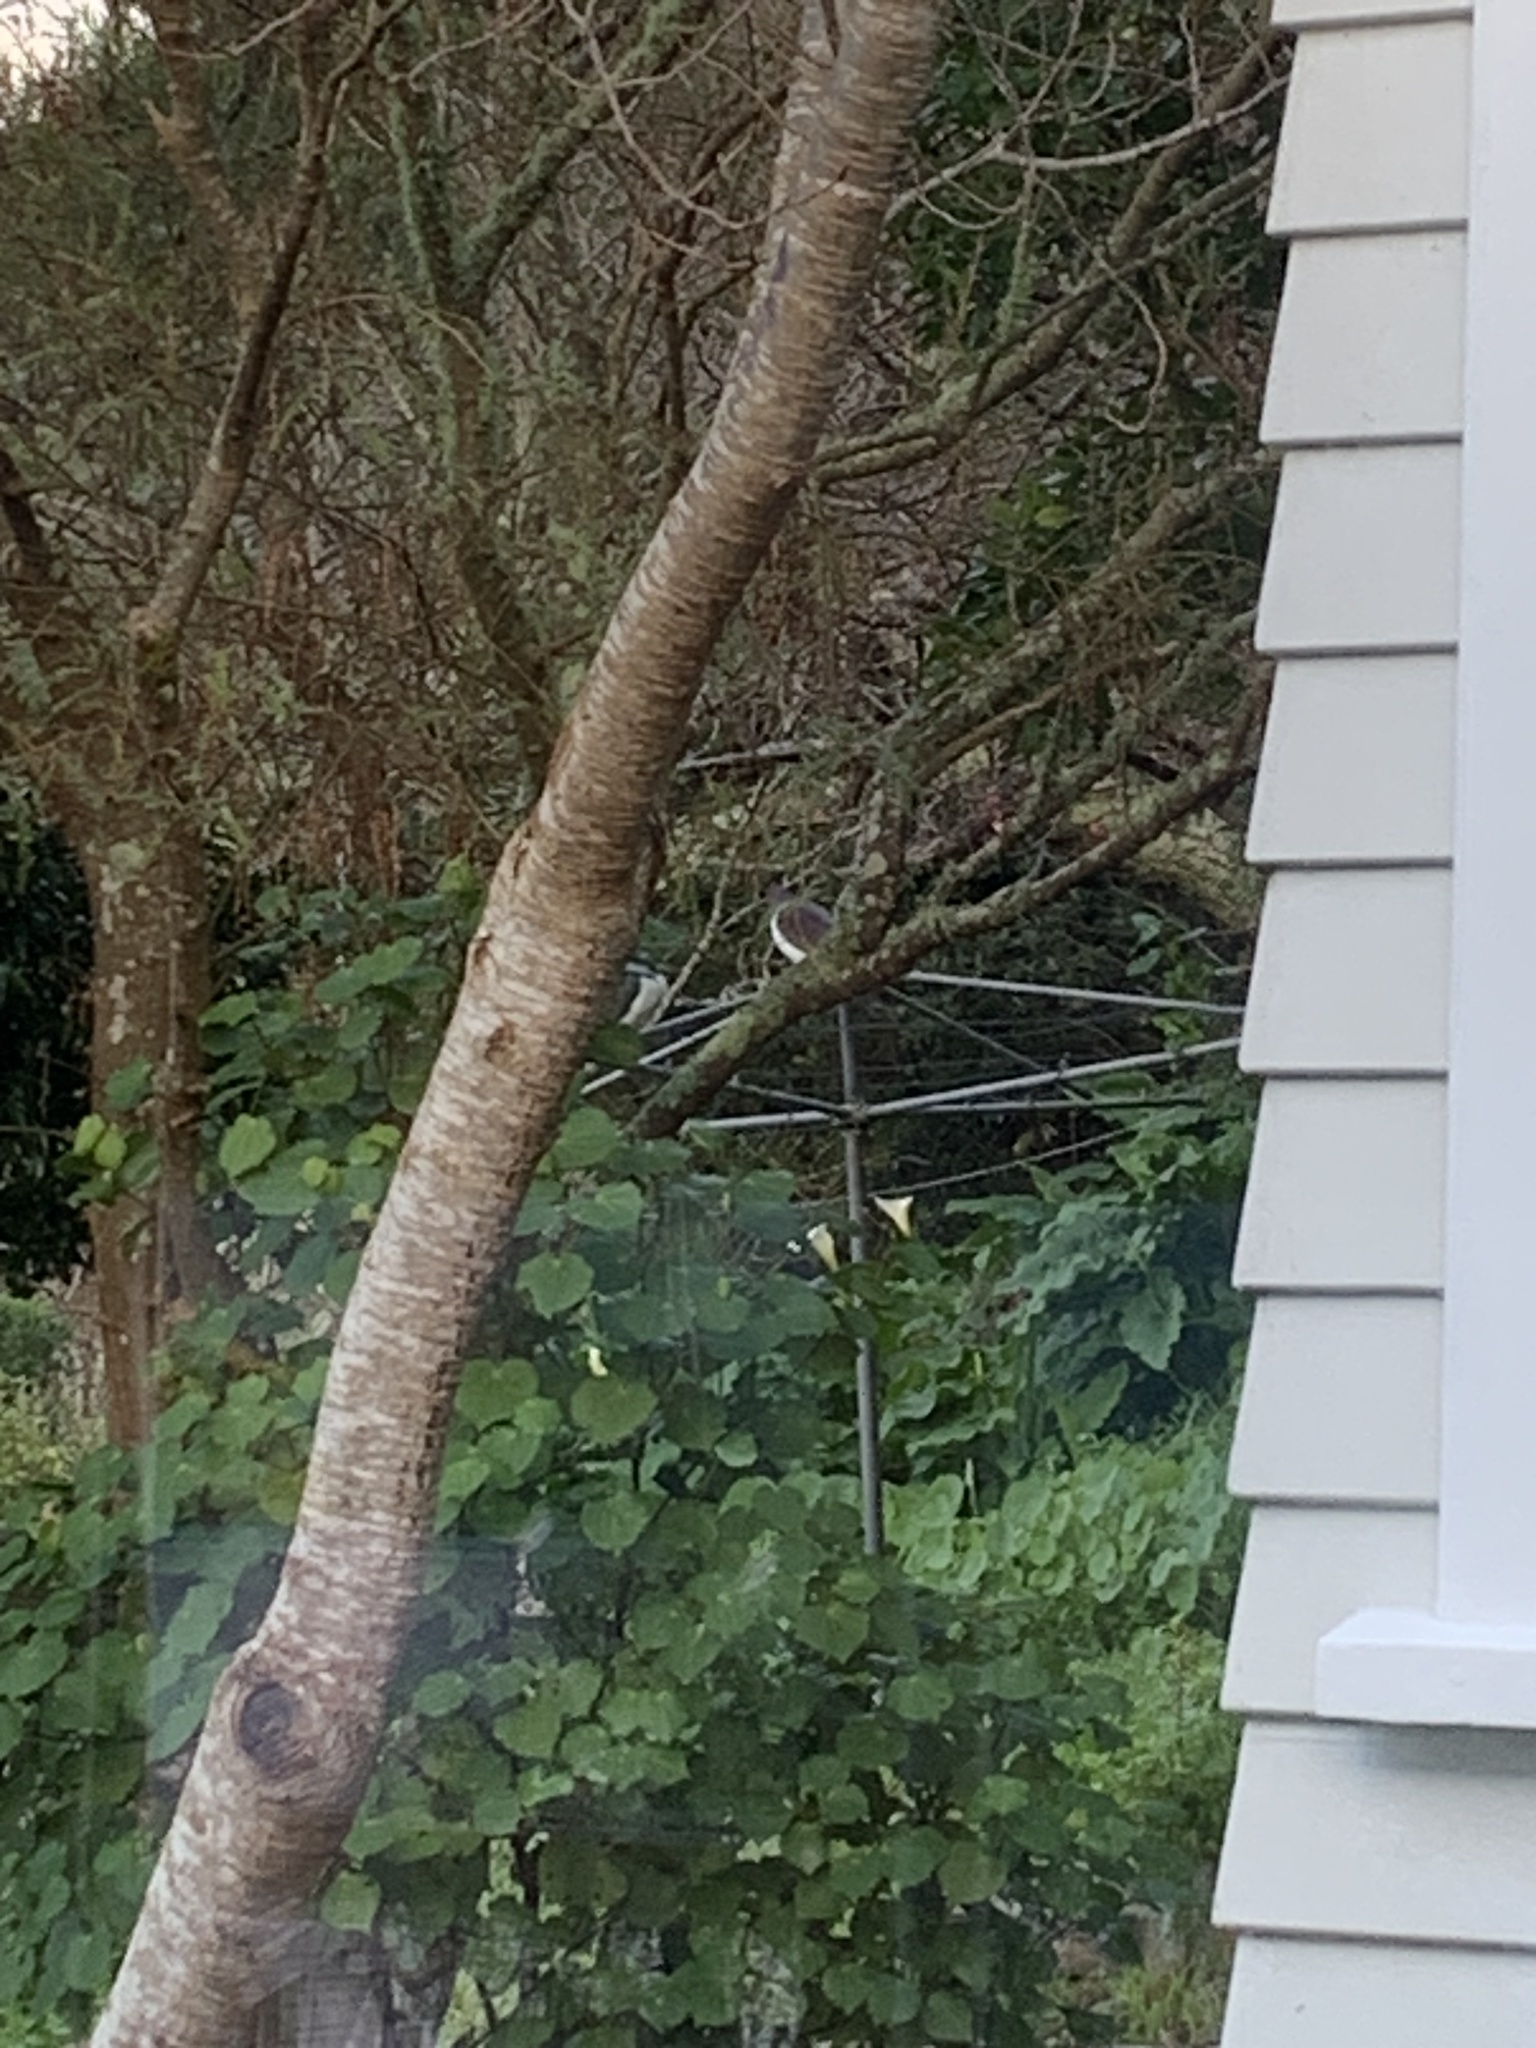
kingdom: Animalia
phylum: Chordata
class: Aves
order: Columbiformes
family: Columbidae
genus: Hemiphaga
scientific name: Hemiphaga novaeseelandiae
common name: New zealand pigeon
